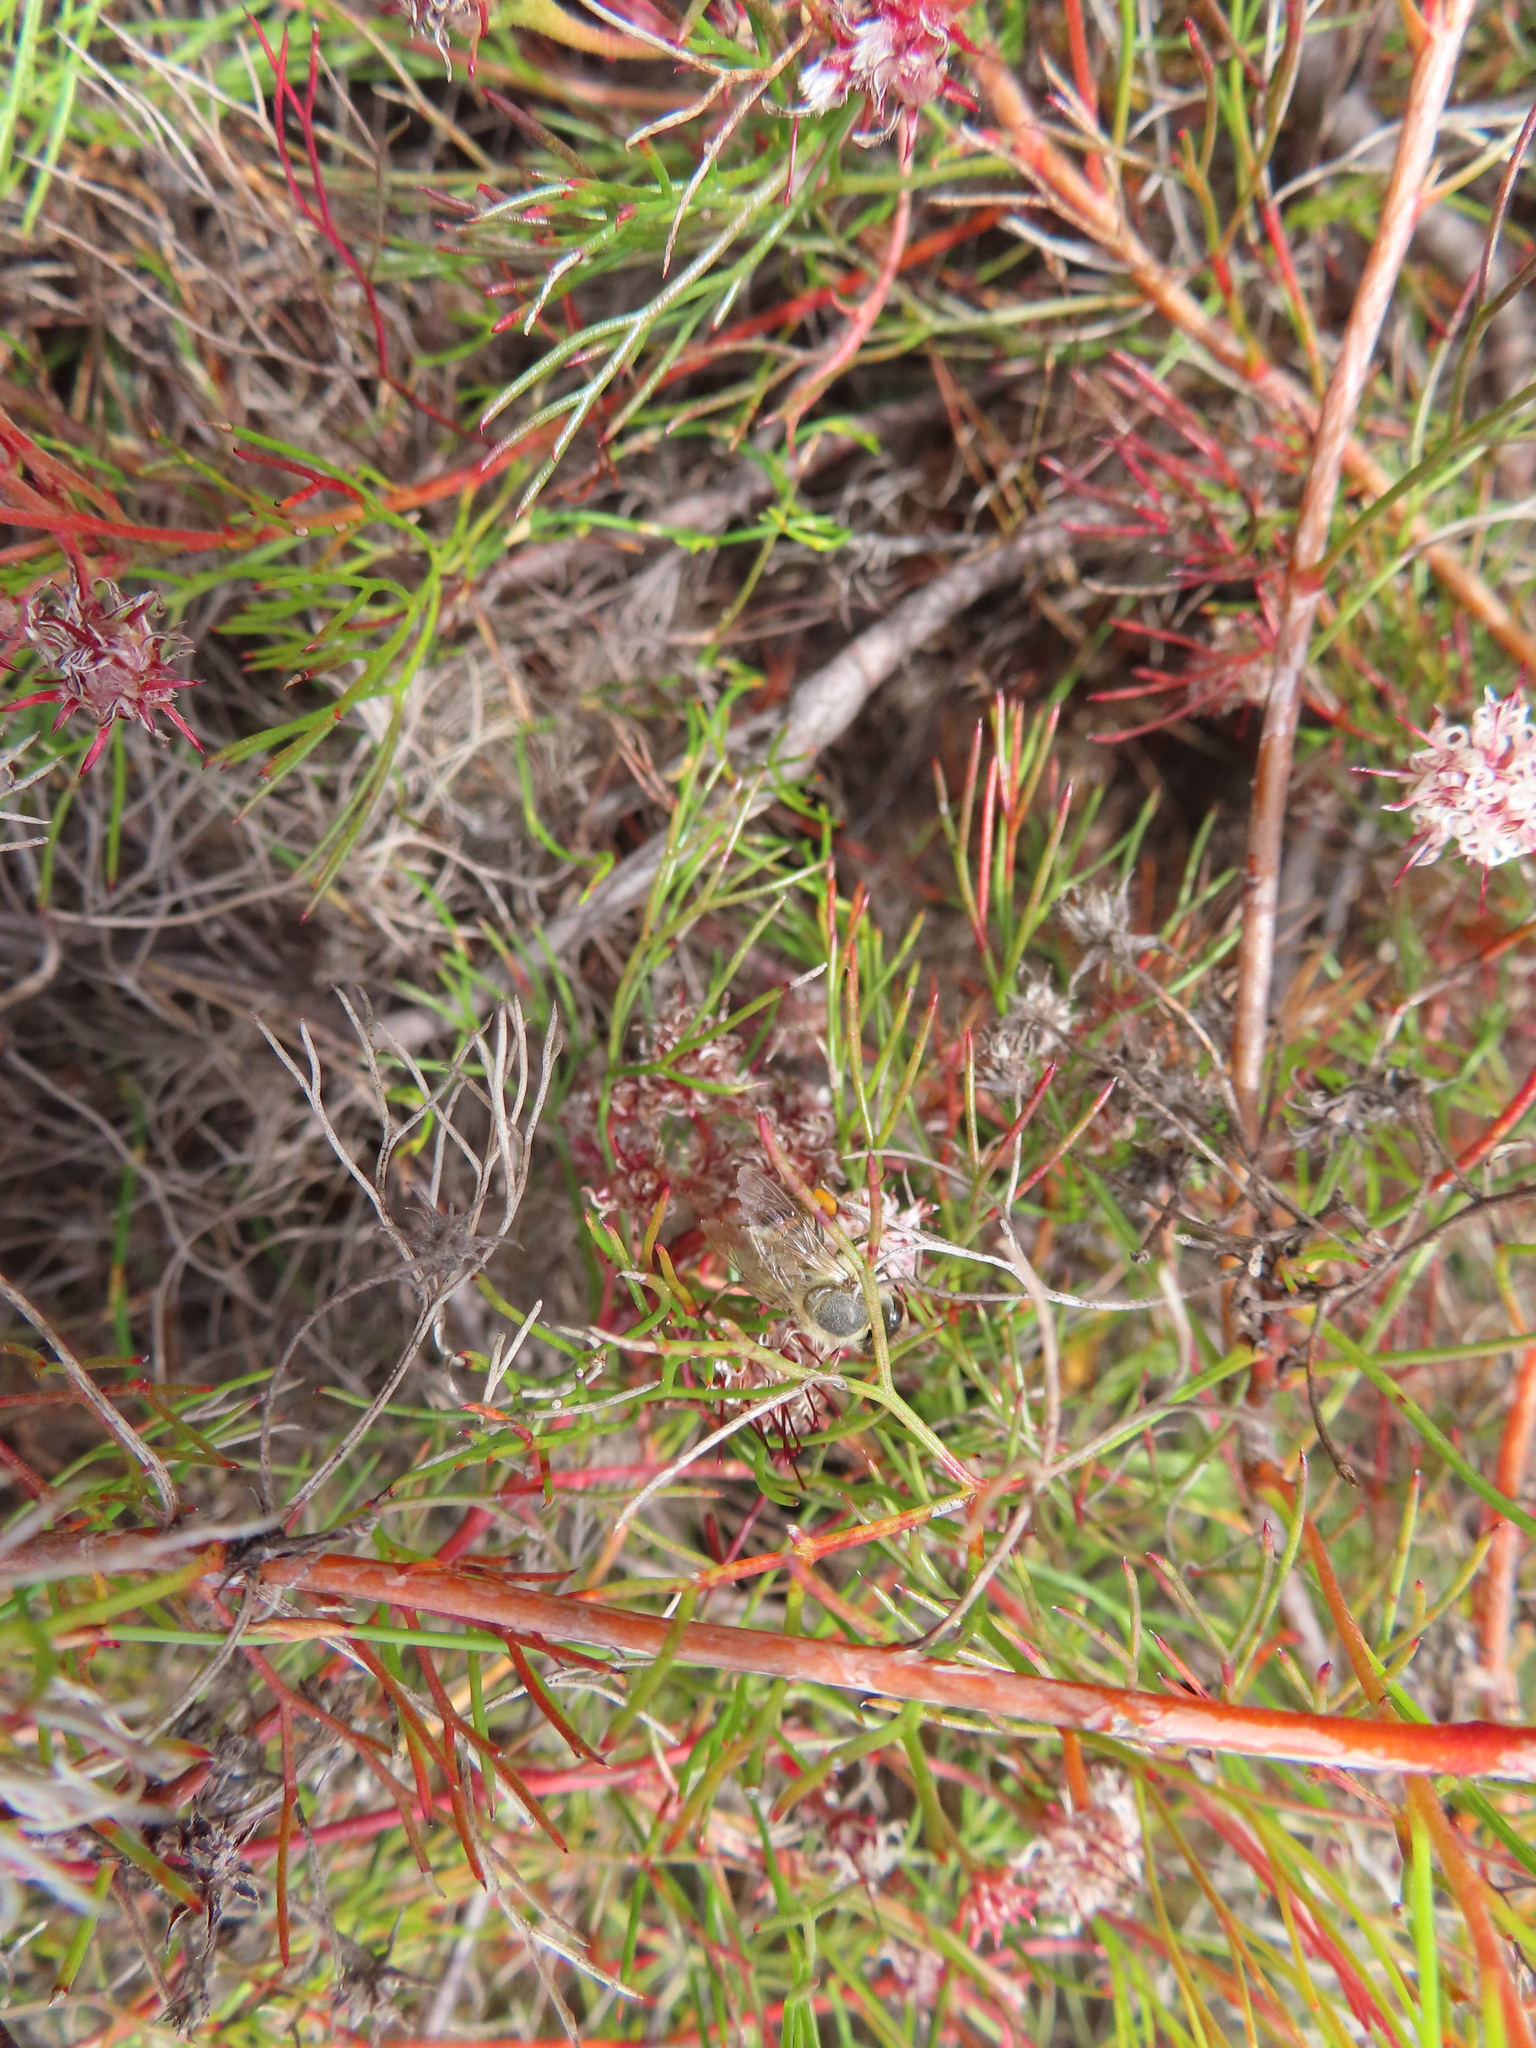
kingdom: Plantae
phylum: Tracheophyta
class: Magnoliopsida
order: Proteales
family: Proteaceae
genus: Serruria
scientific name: Serruria fasciflora
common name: Common pin spiderhead
